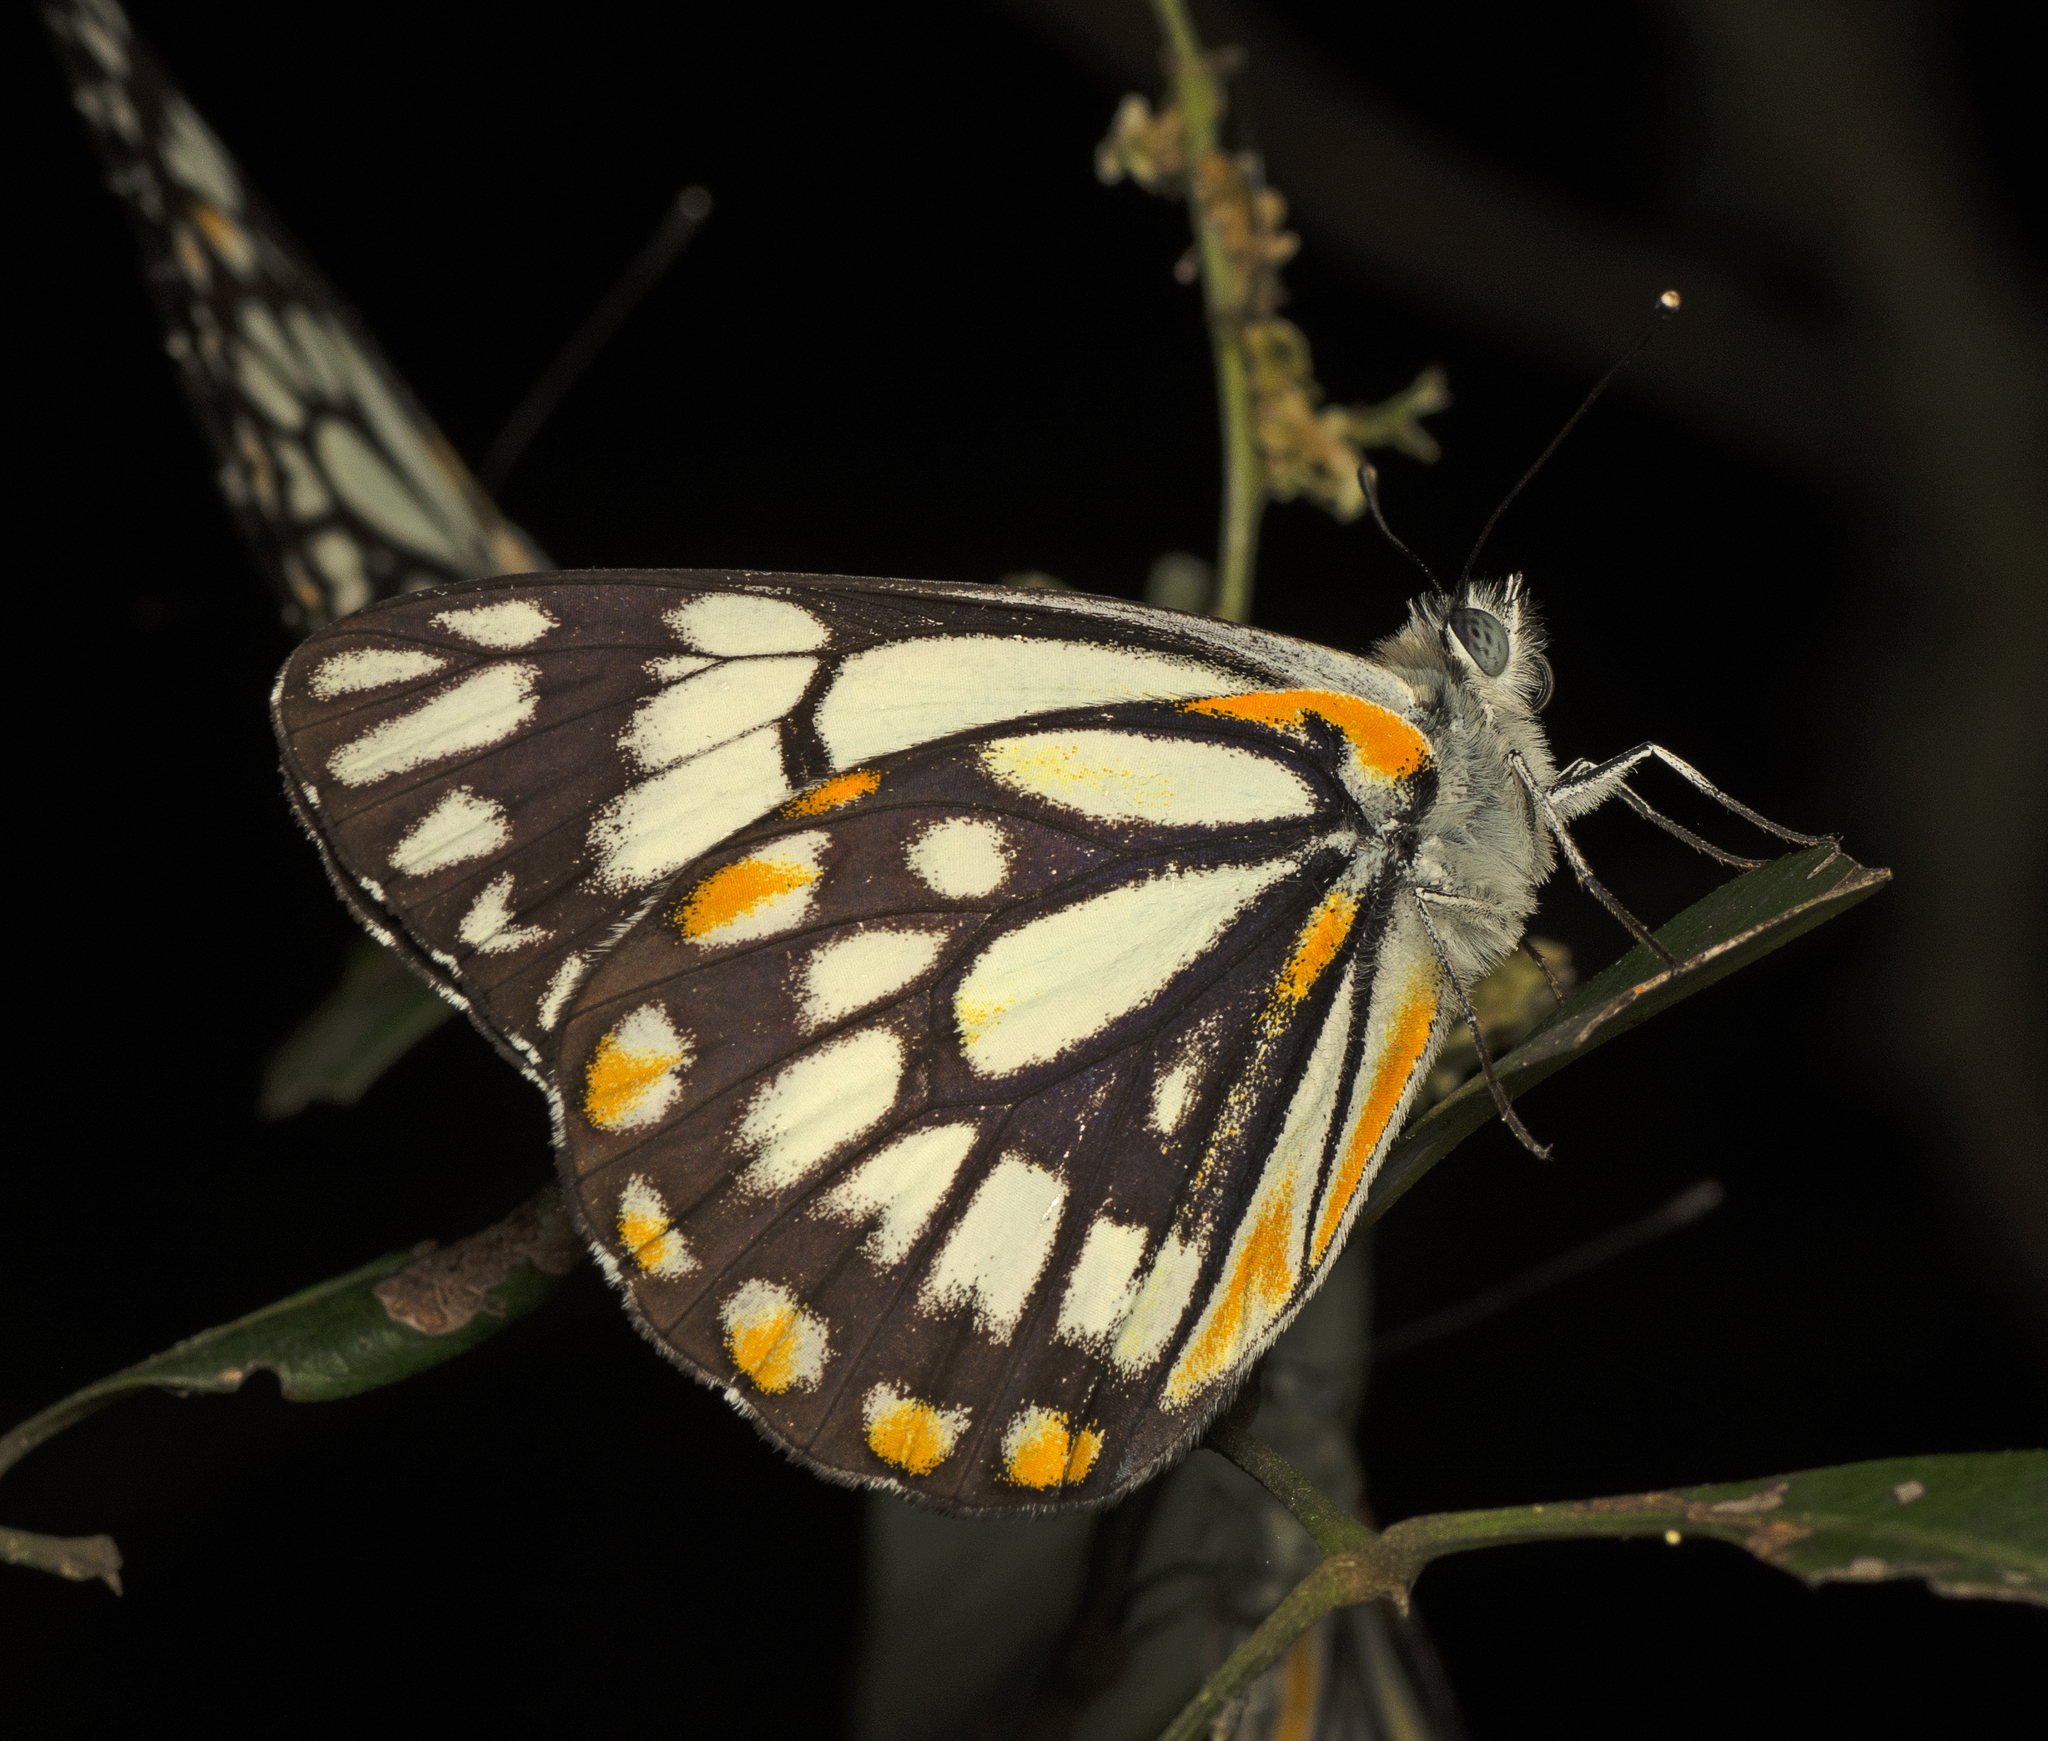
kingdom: Animalia
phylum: Arthropoda
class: Insecta
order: Lepidoptera
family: Pieridae
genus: Belenois
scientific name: Belenois java
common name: Caper white
